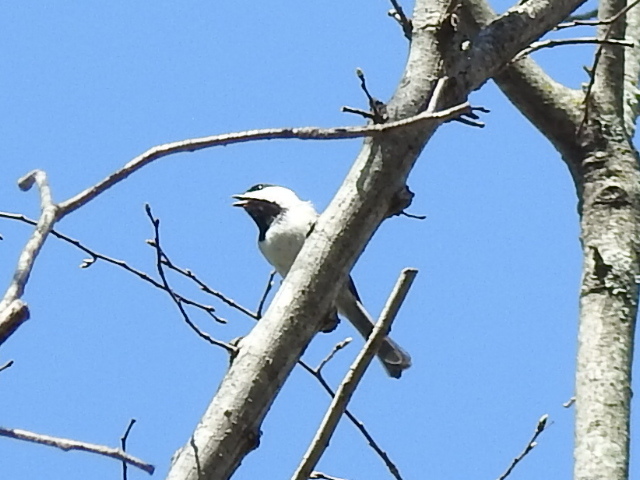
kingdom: Animalia
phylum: Chordata
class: Aves
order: Passeriformes
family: Paridae
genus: Poecile
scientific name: Poecile carolinensis
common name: Carolina chickadee
